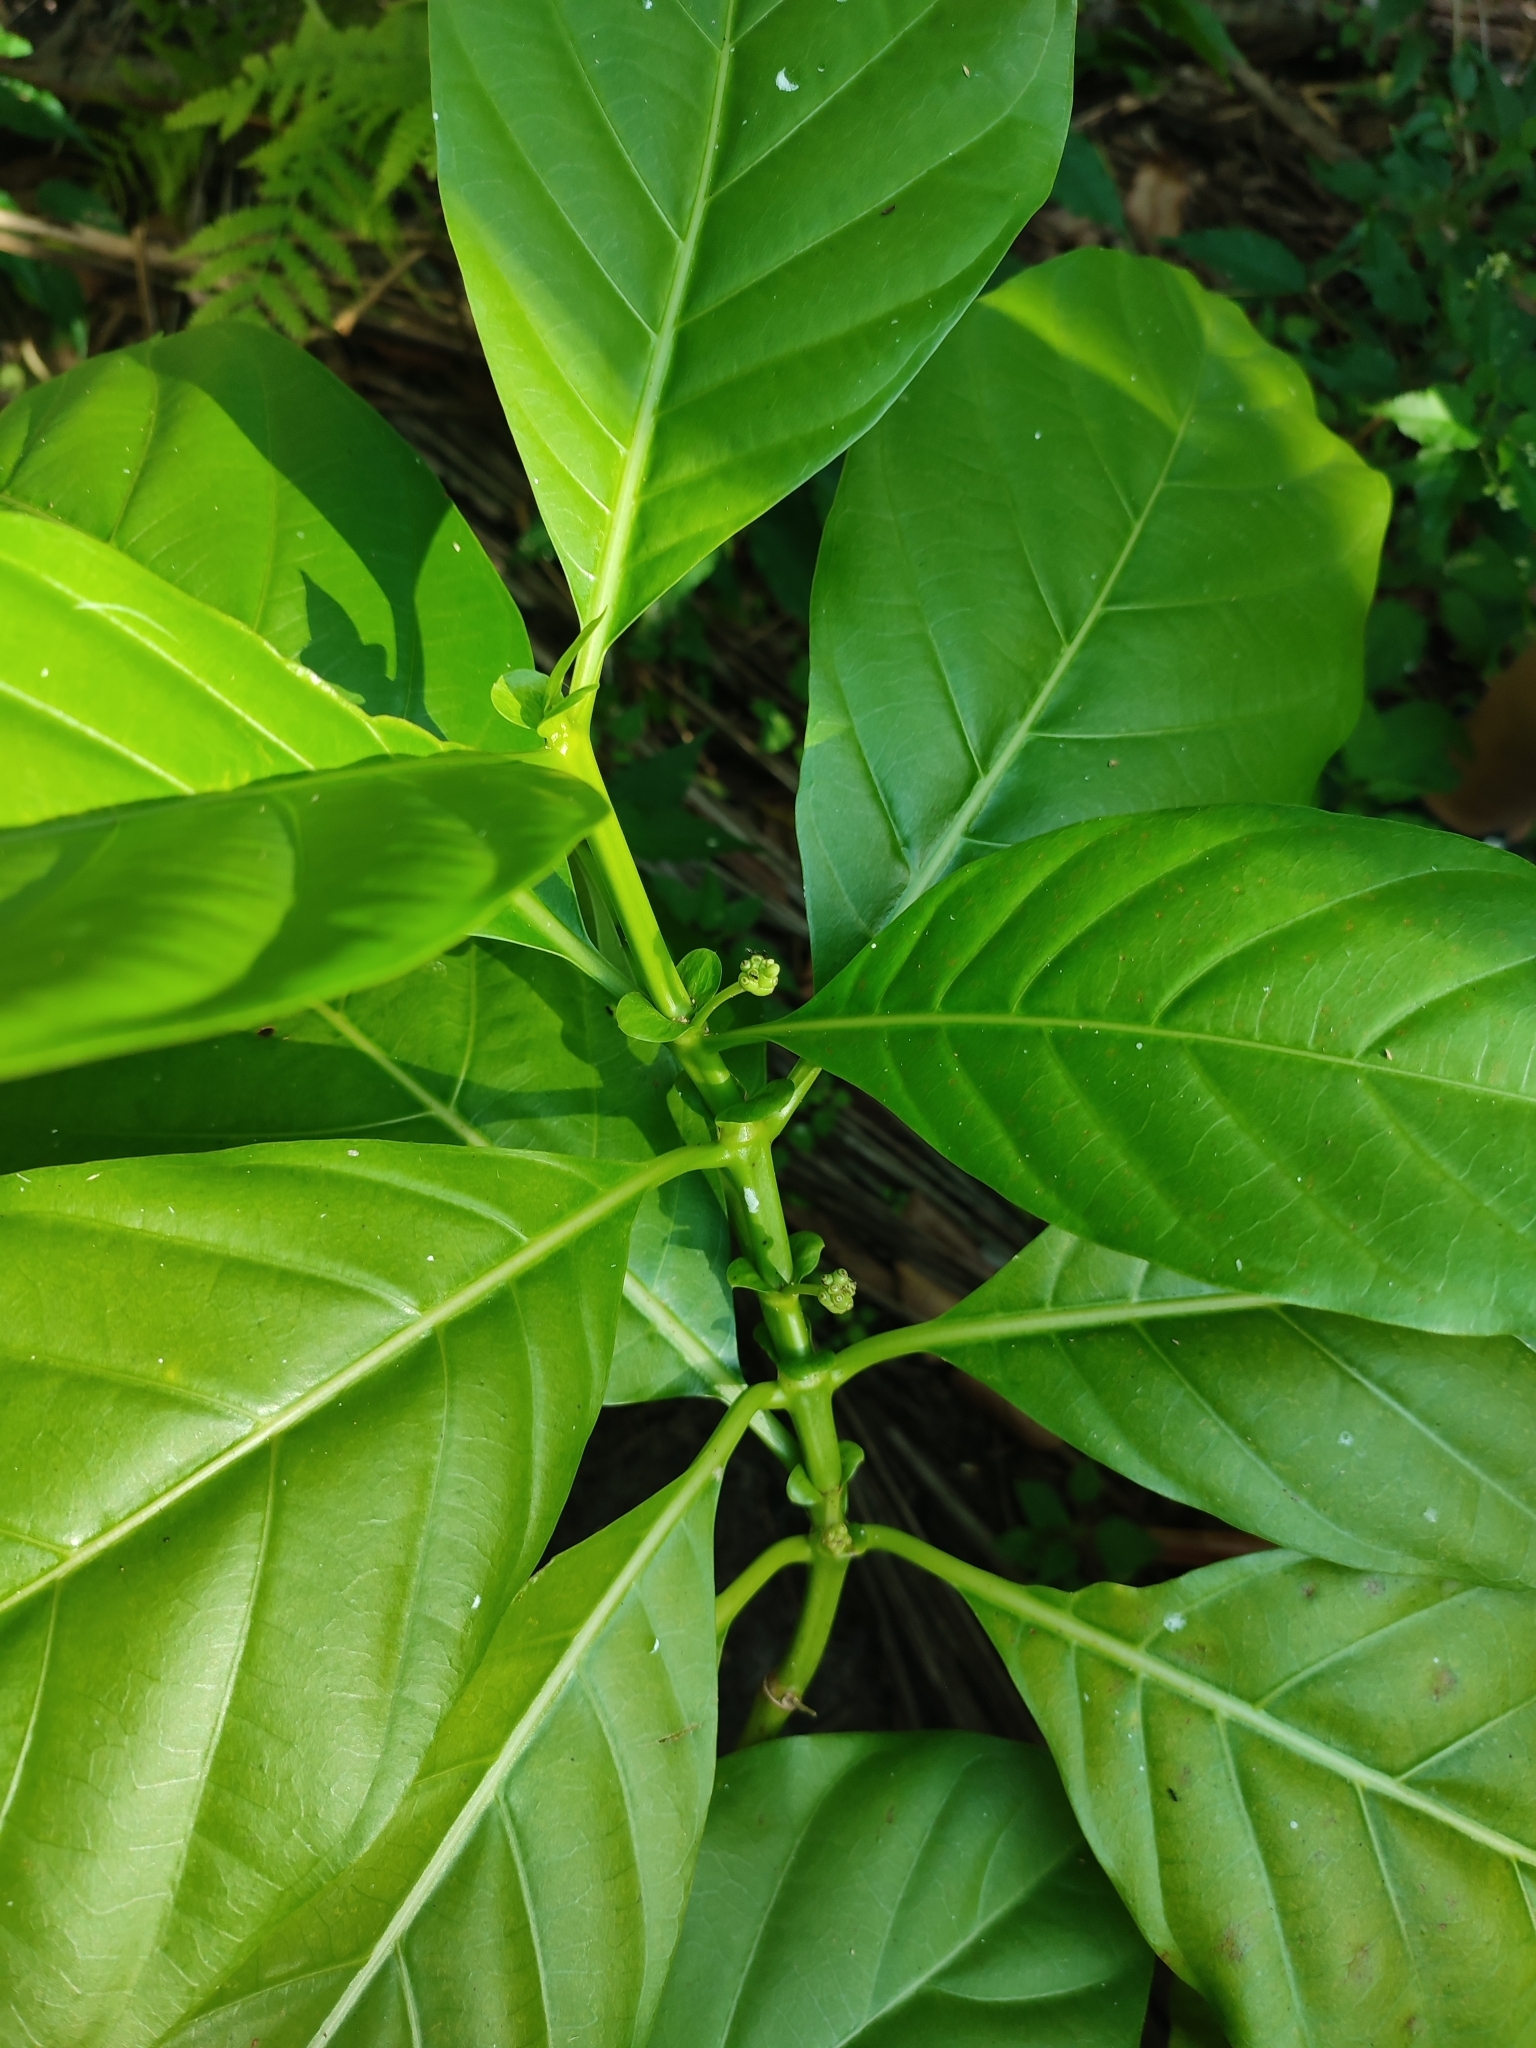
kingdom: Plantae
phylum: Tracheophyta
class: Magnoliopsida
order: Gentianales
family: Rubiaceae
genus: Morinda
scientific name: Morinda citrifolia
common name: Indian-mulberry
